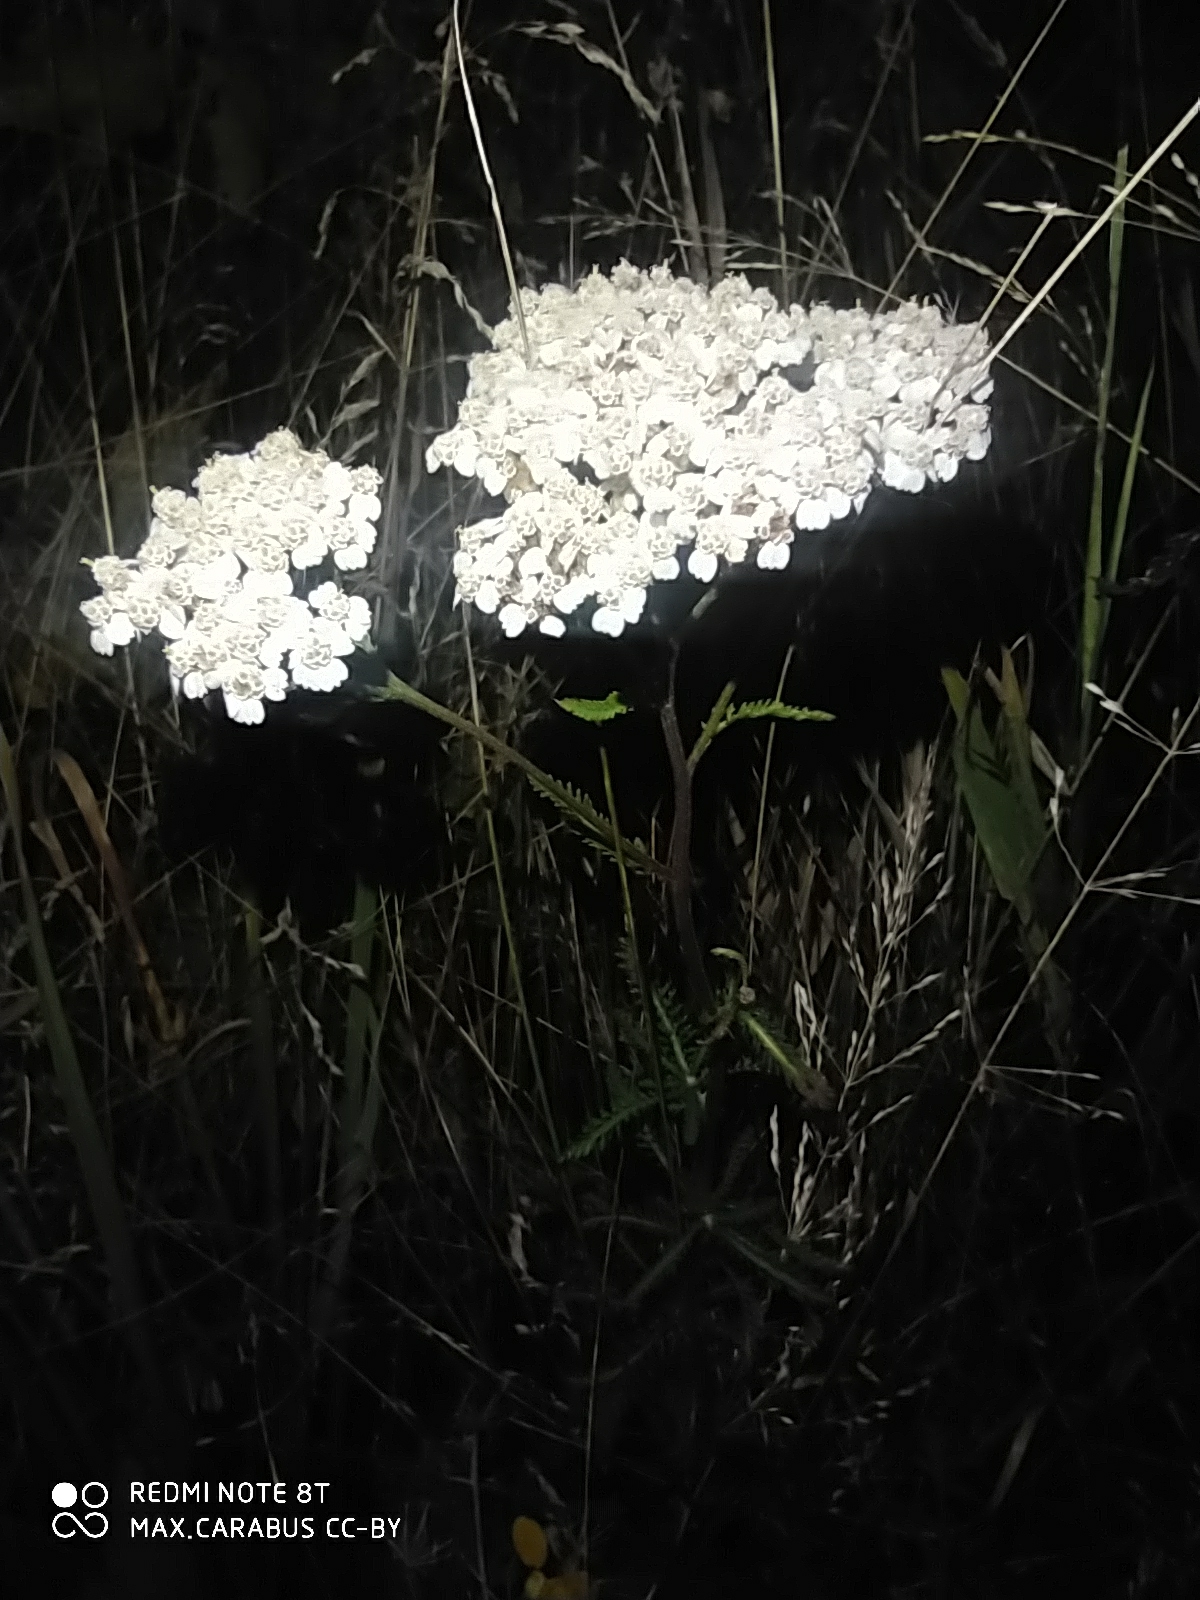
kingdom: Plantae
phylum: Tracheophyta
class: Magnoliopsida
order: Asterales
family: Asteraceae
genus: Achillea
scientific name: Achillea millefolium
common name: Yarrow
